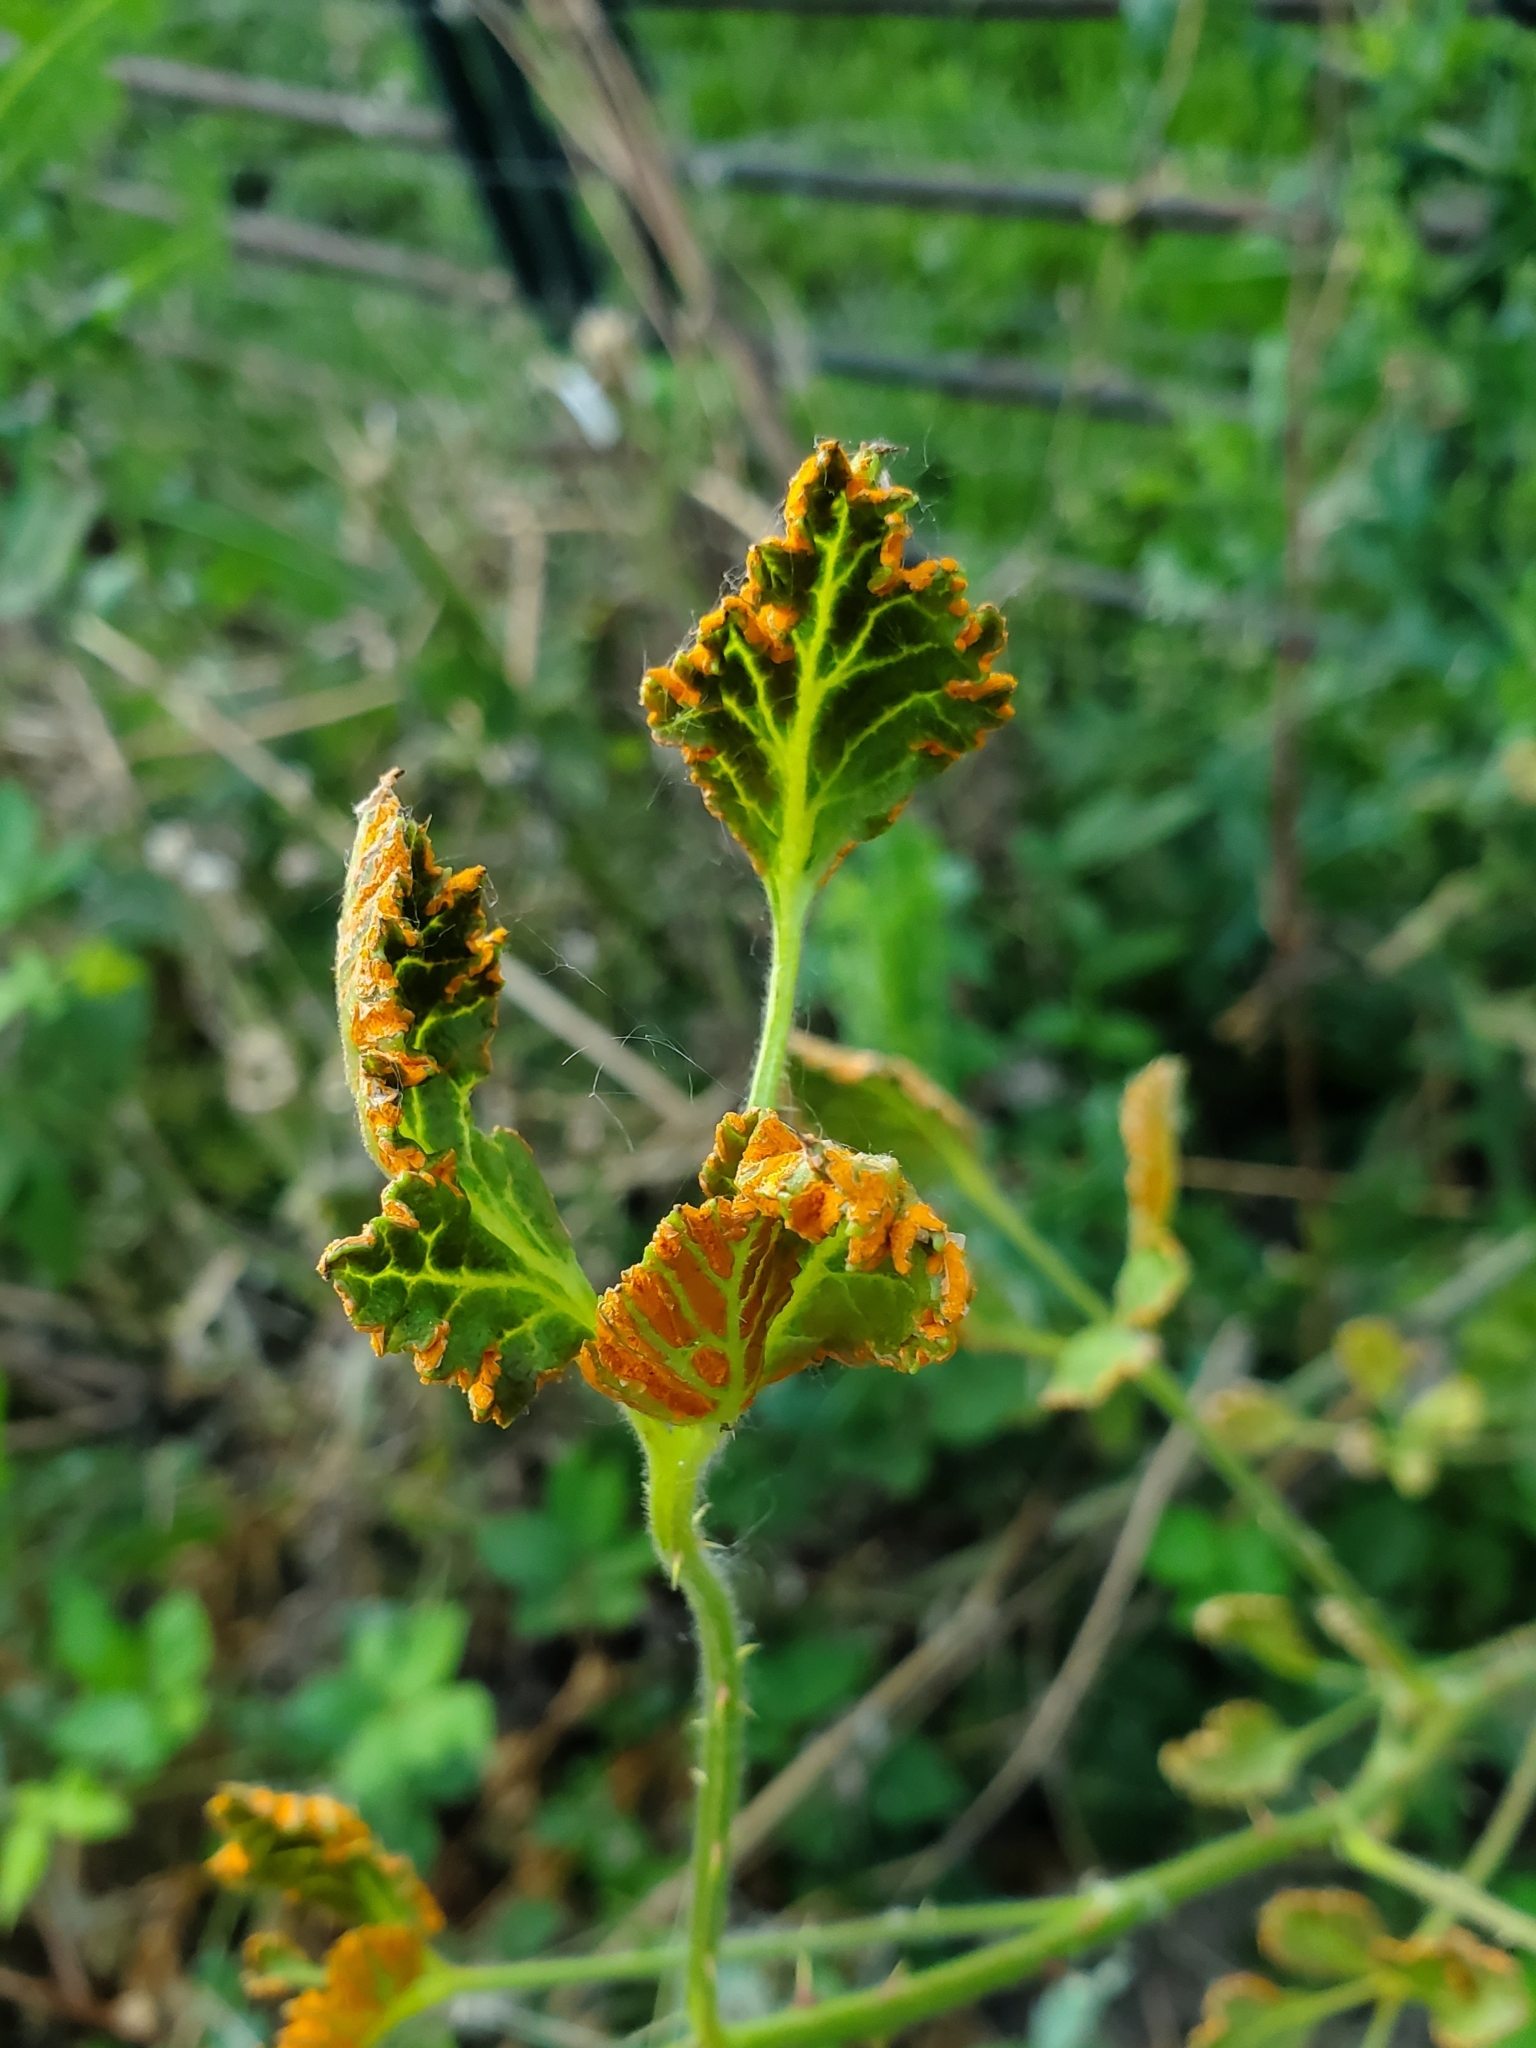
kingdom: Fungi
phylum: Basidiomycota
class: Pucciniomycetes
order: Pucciniales
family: Phragmidiaceae
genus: Arthuriomyces
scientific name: Arthuriomyces peckianus
